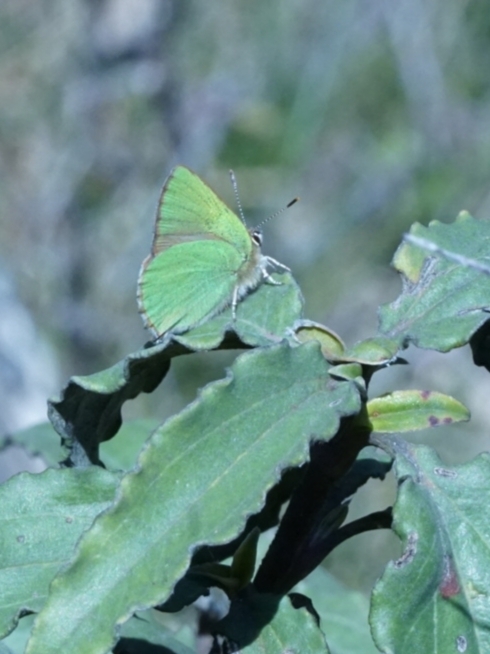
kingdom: Animalia
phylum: Arthropoda
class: Insecta
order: Lepidoptera
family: Lycaenidae
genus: Callophrys
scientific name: Callophrys rubi
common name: Green hairstreak
